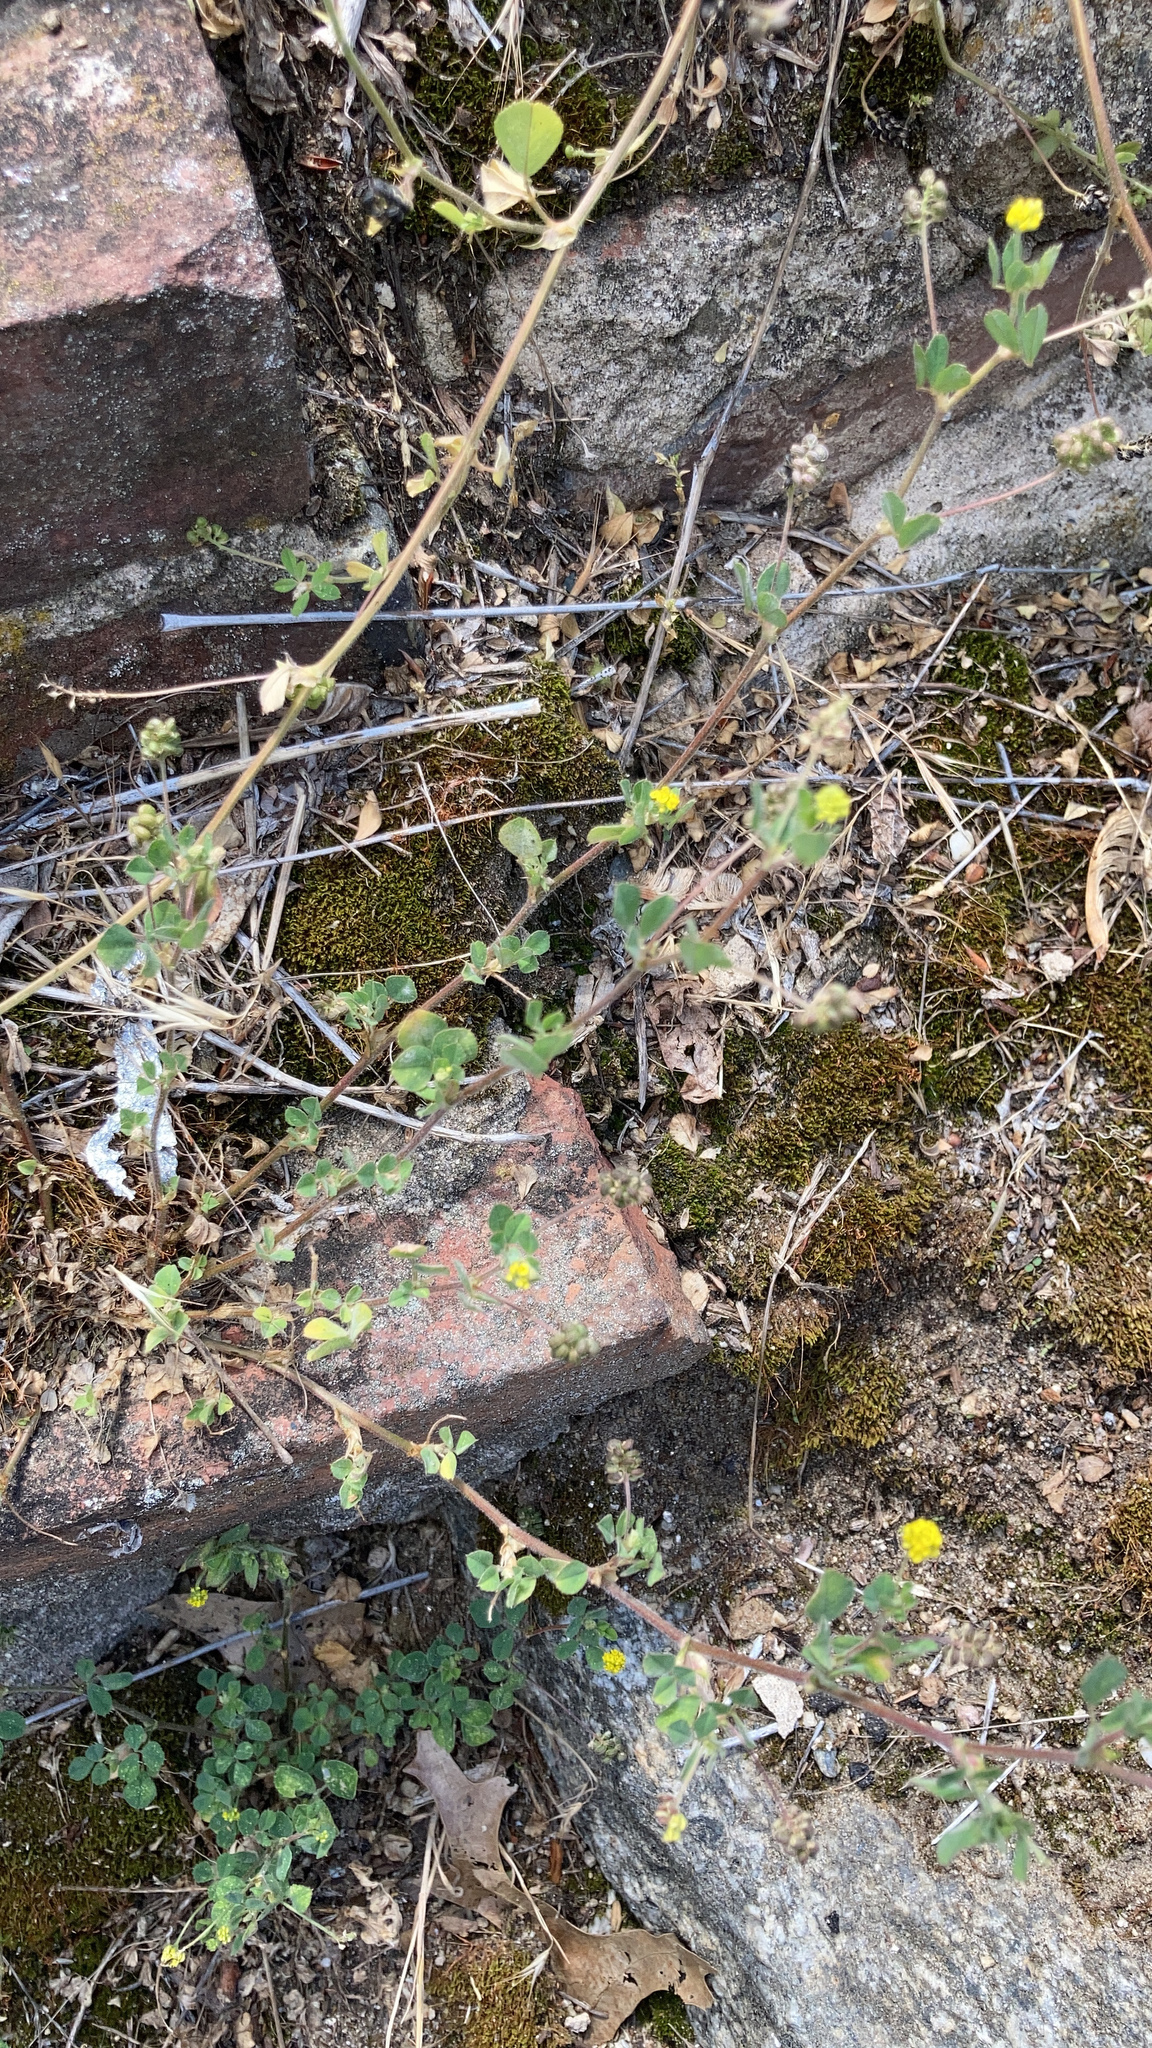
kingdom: Plantae
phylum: Tracheophyta
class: Magnoliopsida
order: Fabales
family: Fabaceae
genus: Medicago
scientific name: Medicago lupulina
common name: Black medick
